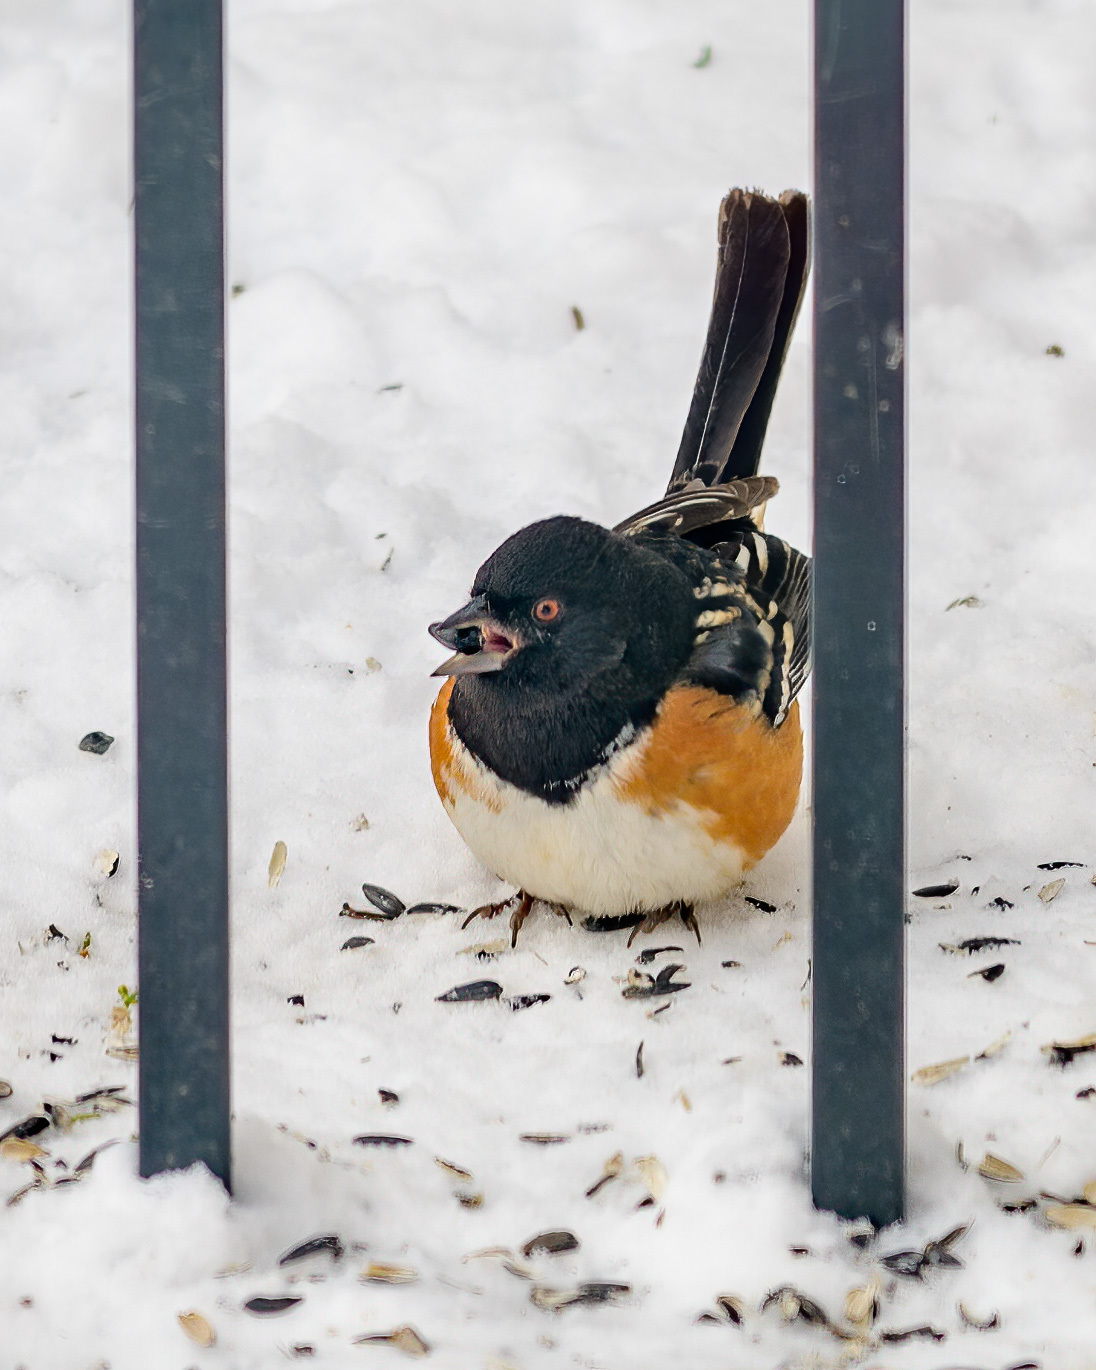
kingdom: Animalia
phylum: Chordata
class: Aves
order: Passeriformes
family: Passerellidae
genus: Pipilo
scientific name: Pipilo maculatus
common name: Spotted towhee
